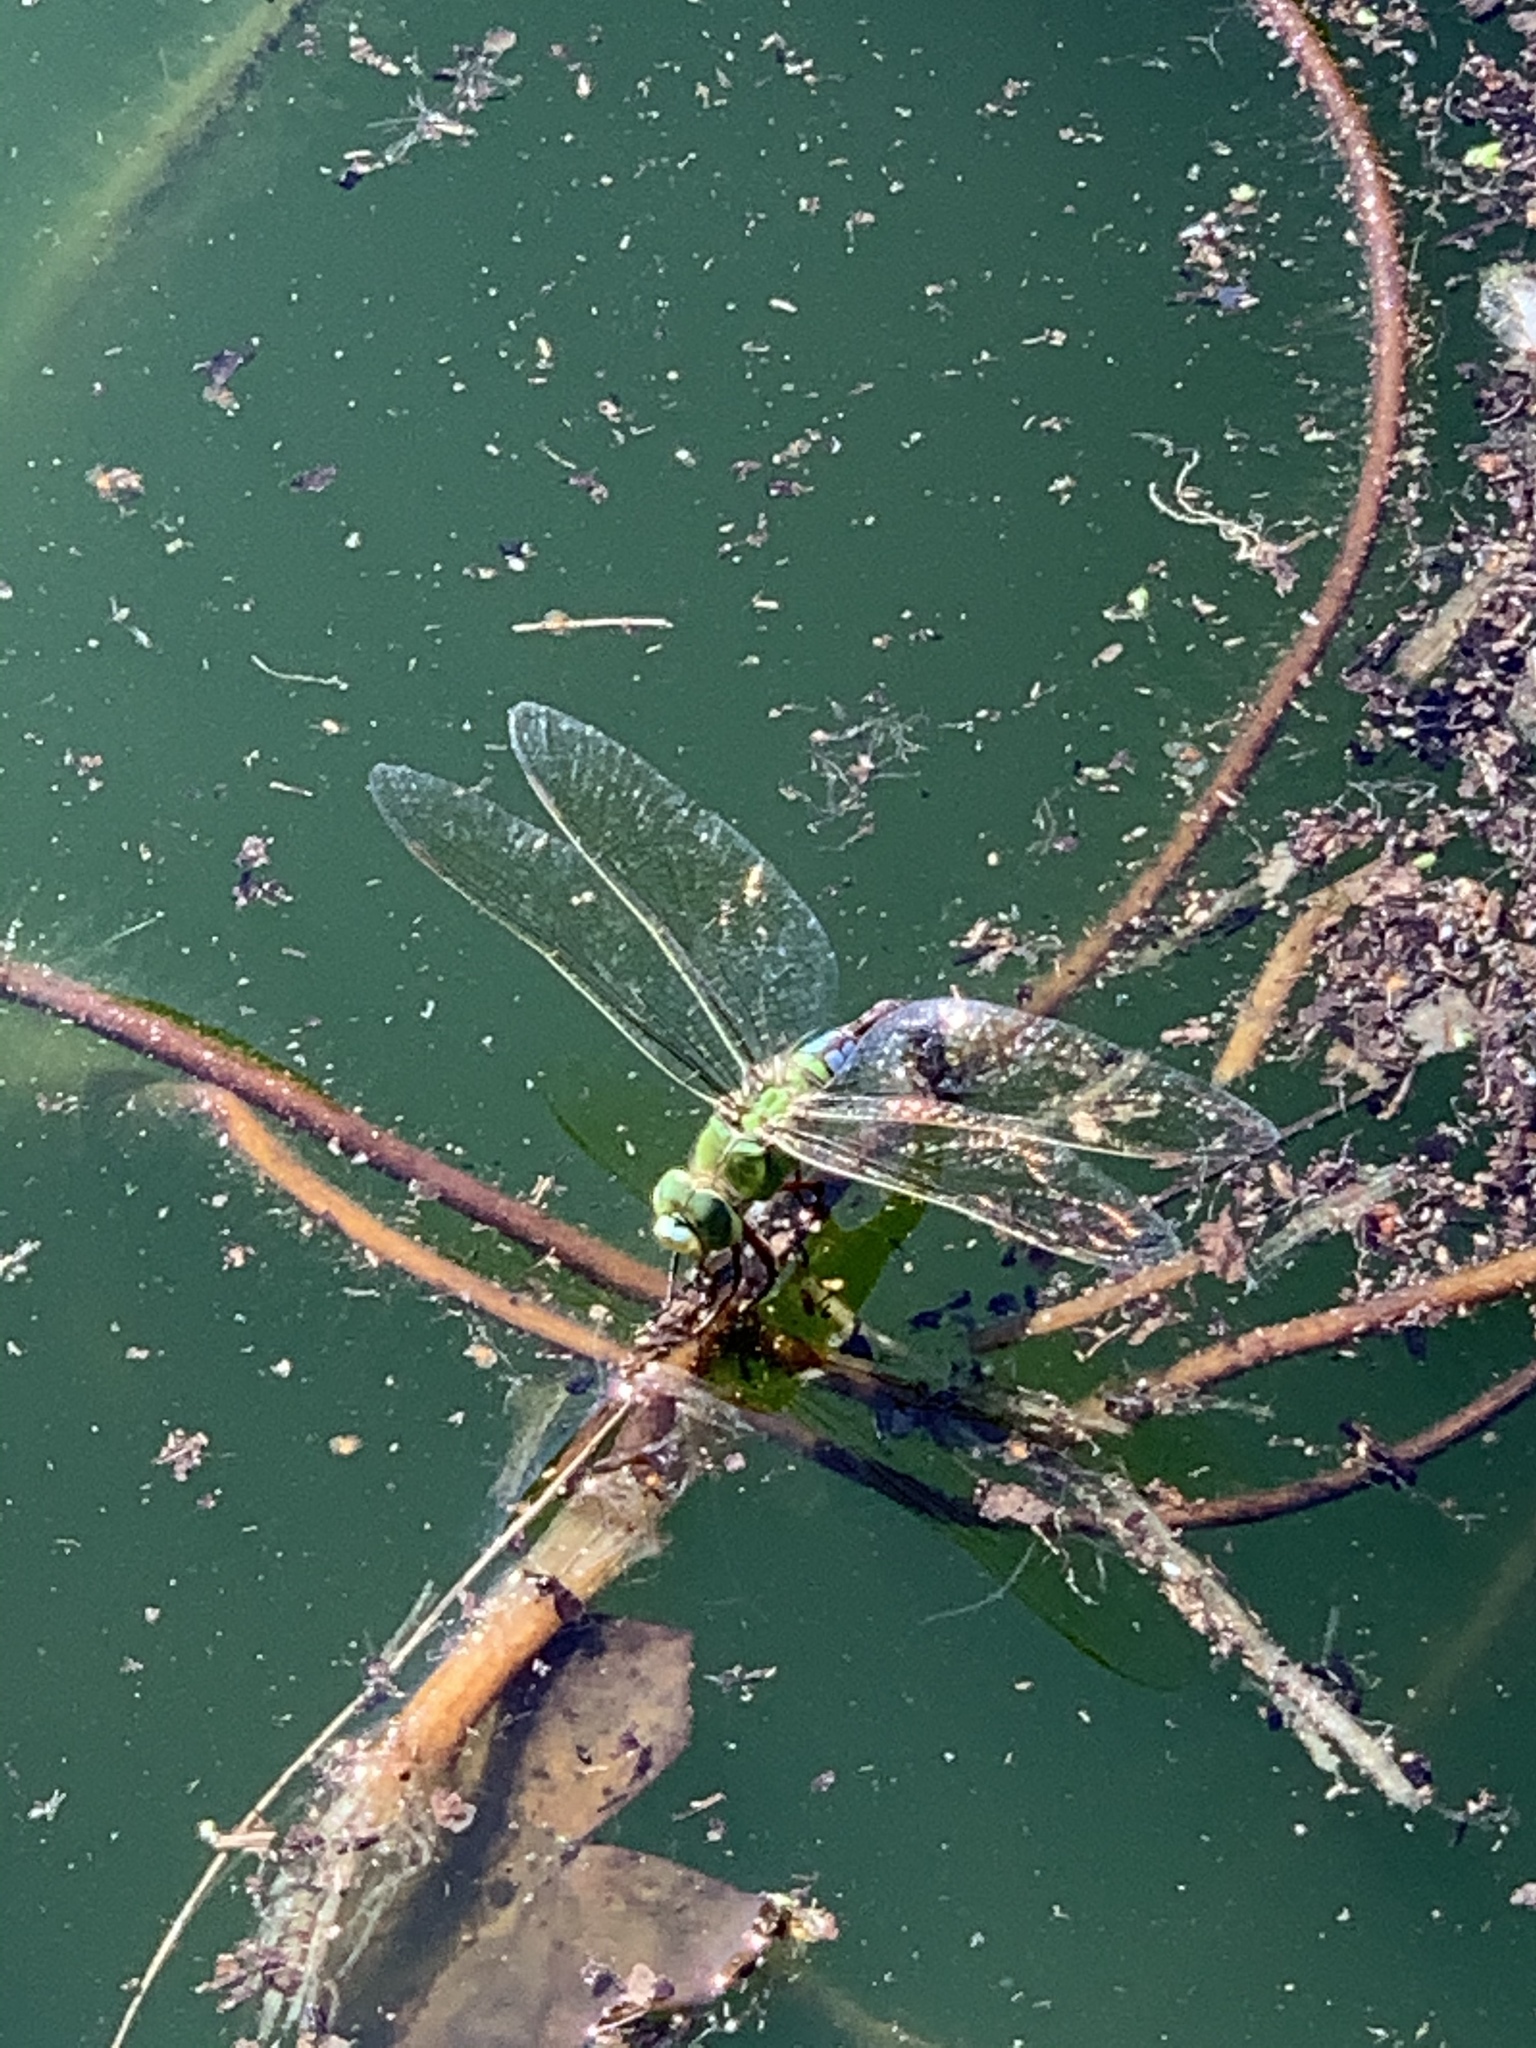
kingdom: Animalia
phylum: Arthropoda
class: Insecta
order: Odonata
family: Aeshnidae
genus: Anax
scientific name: Anax imperator
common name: Emperor dragonfly
